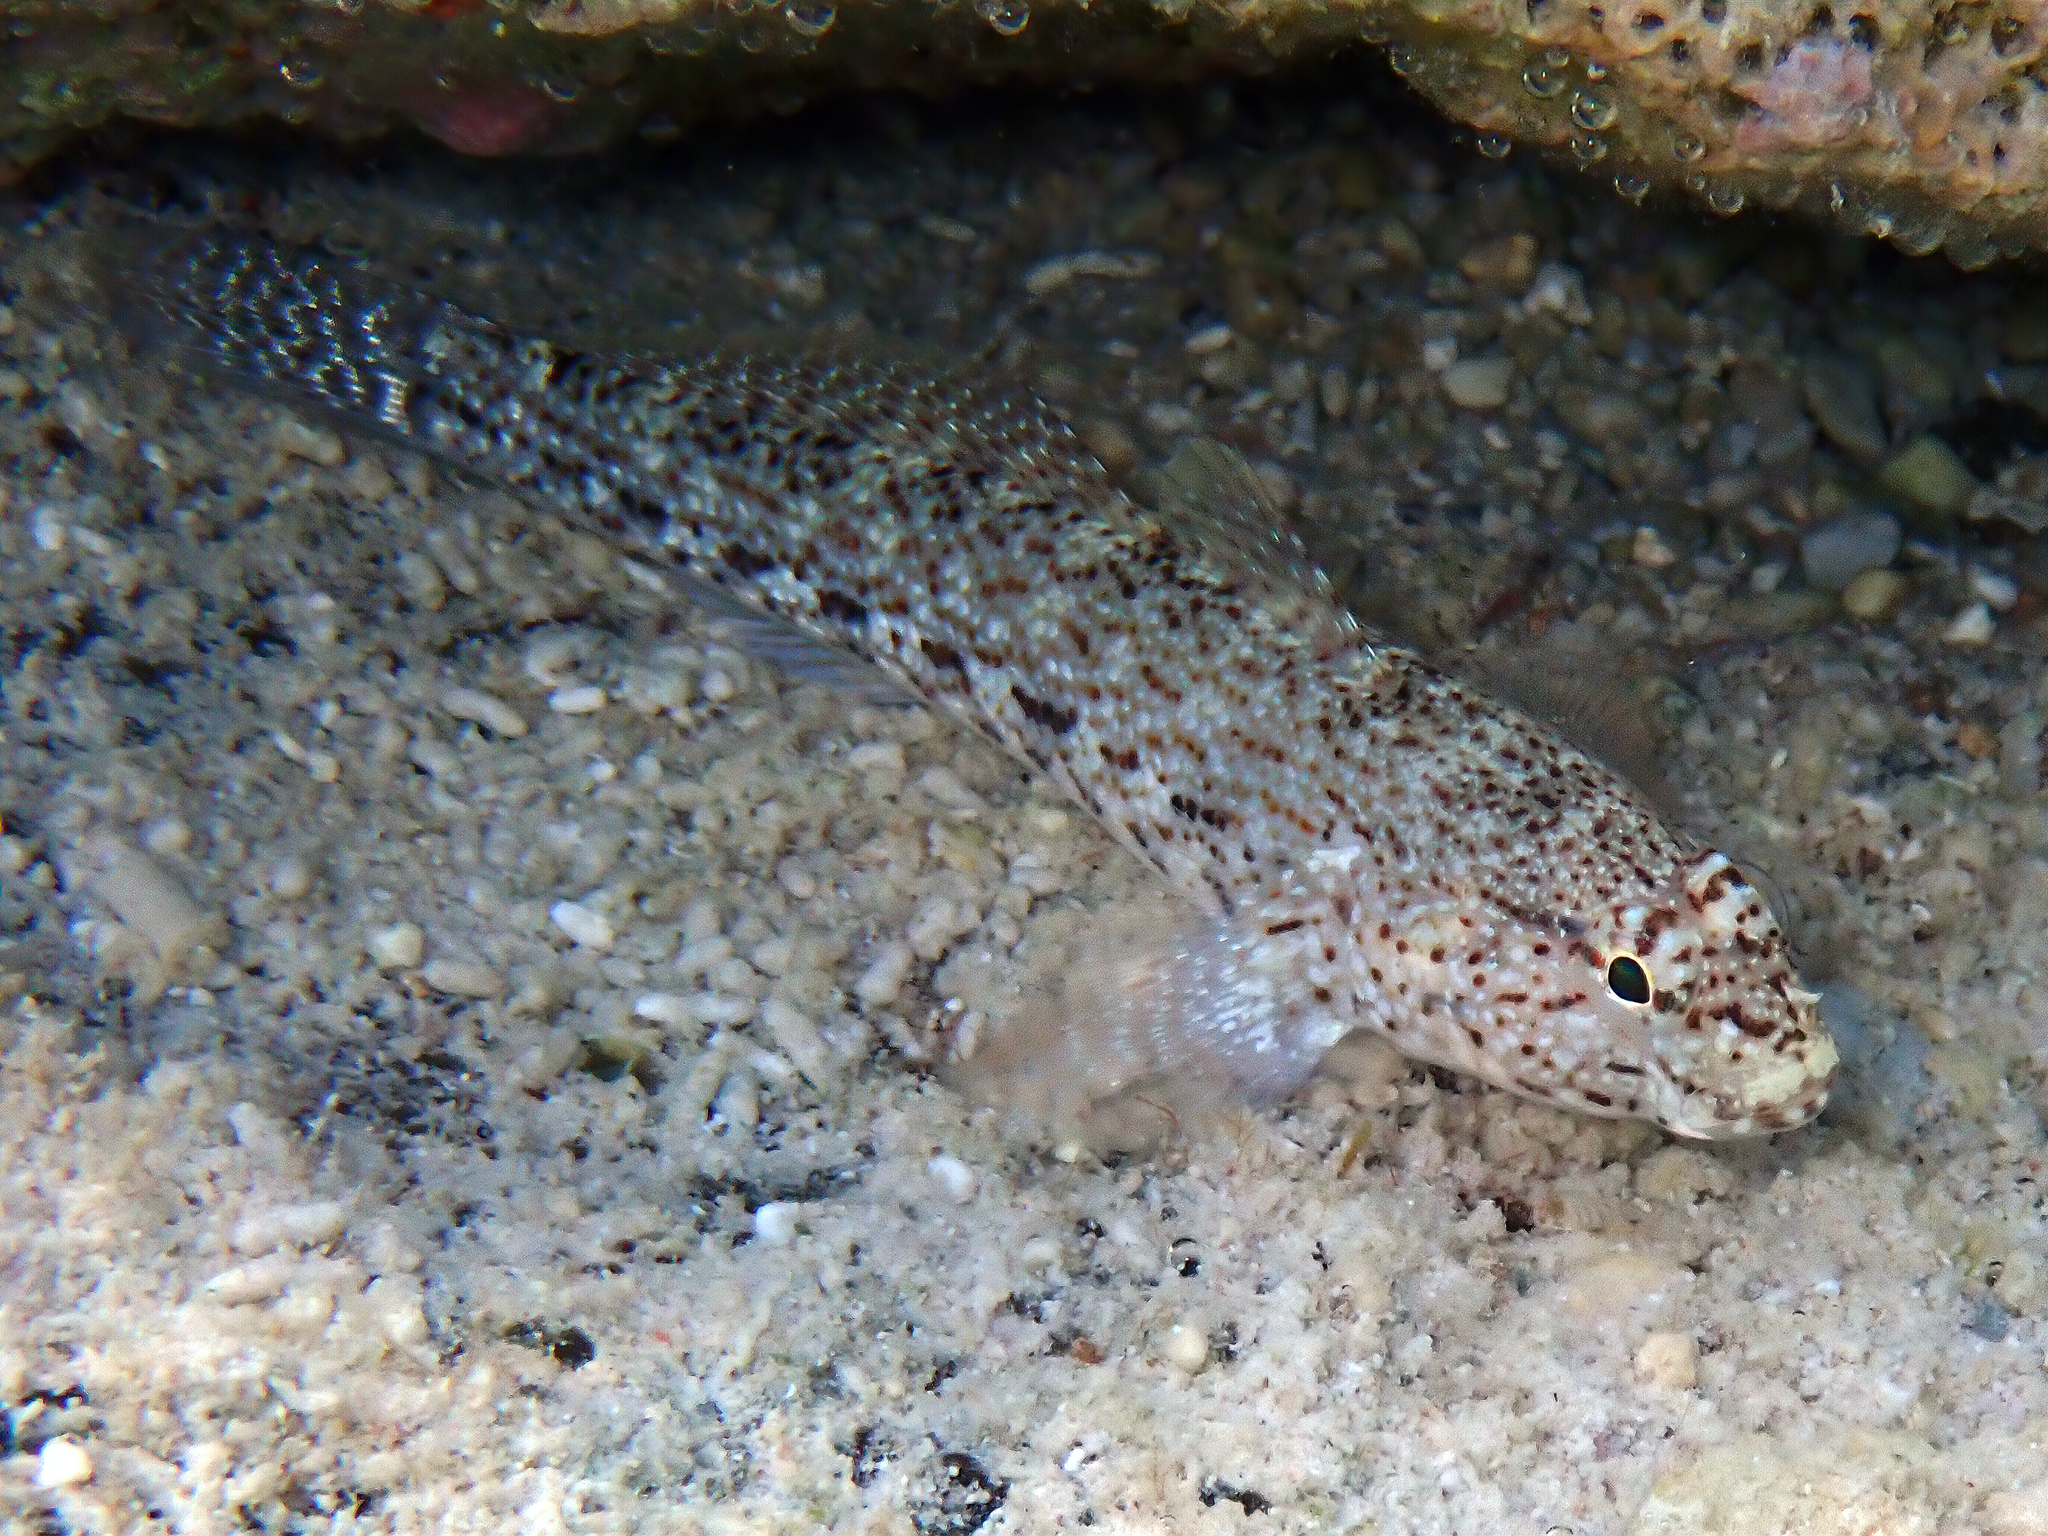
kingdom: Animalia
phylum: Chordata
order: Perciformes
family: Gobiidae
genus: Gobius
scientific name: Gobius incognitus
